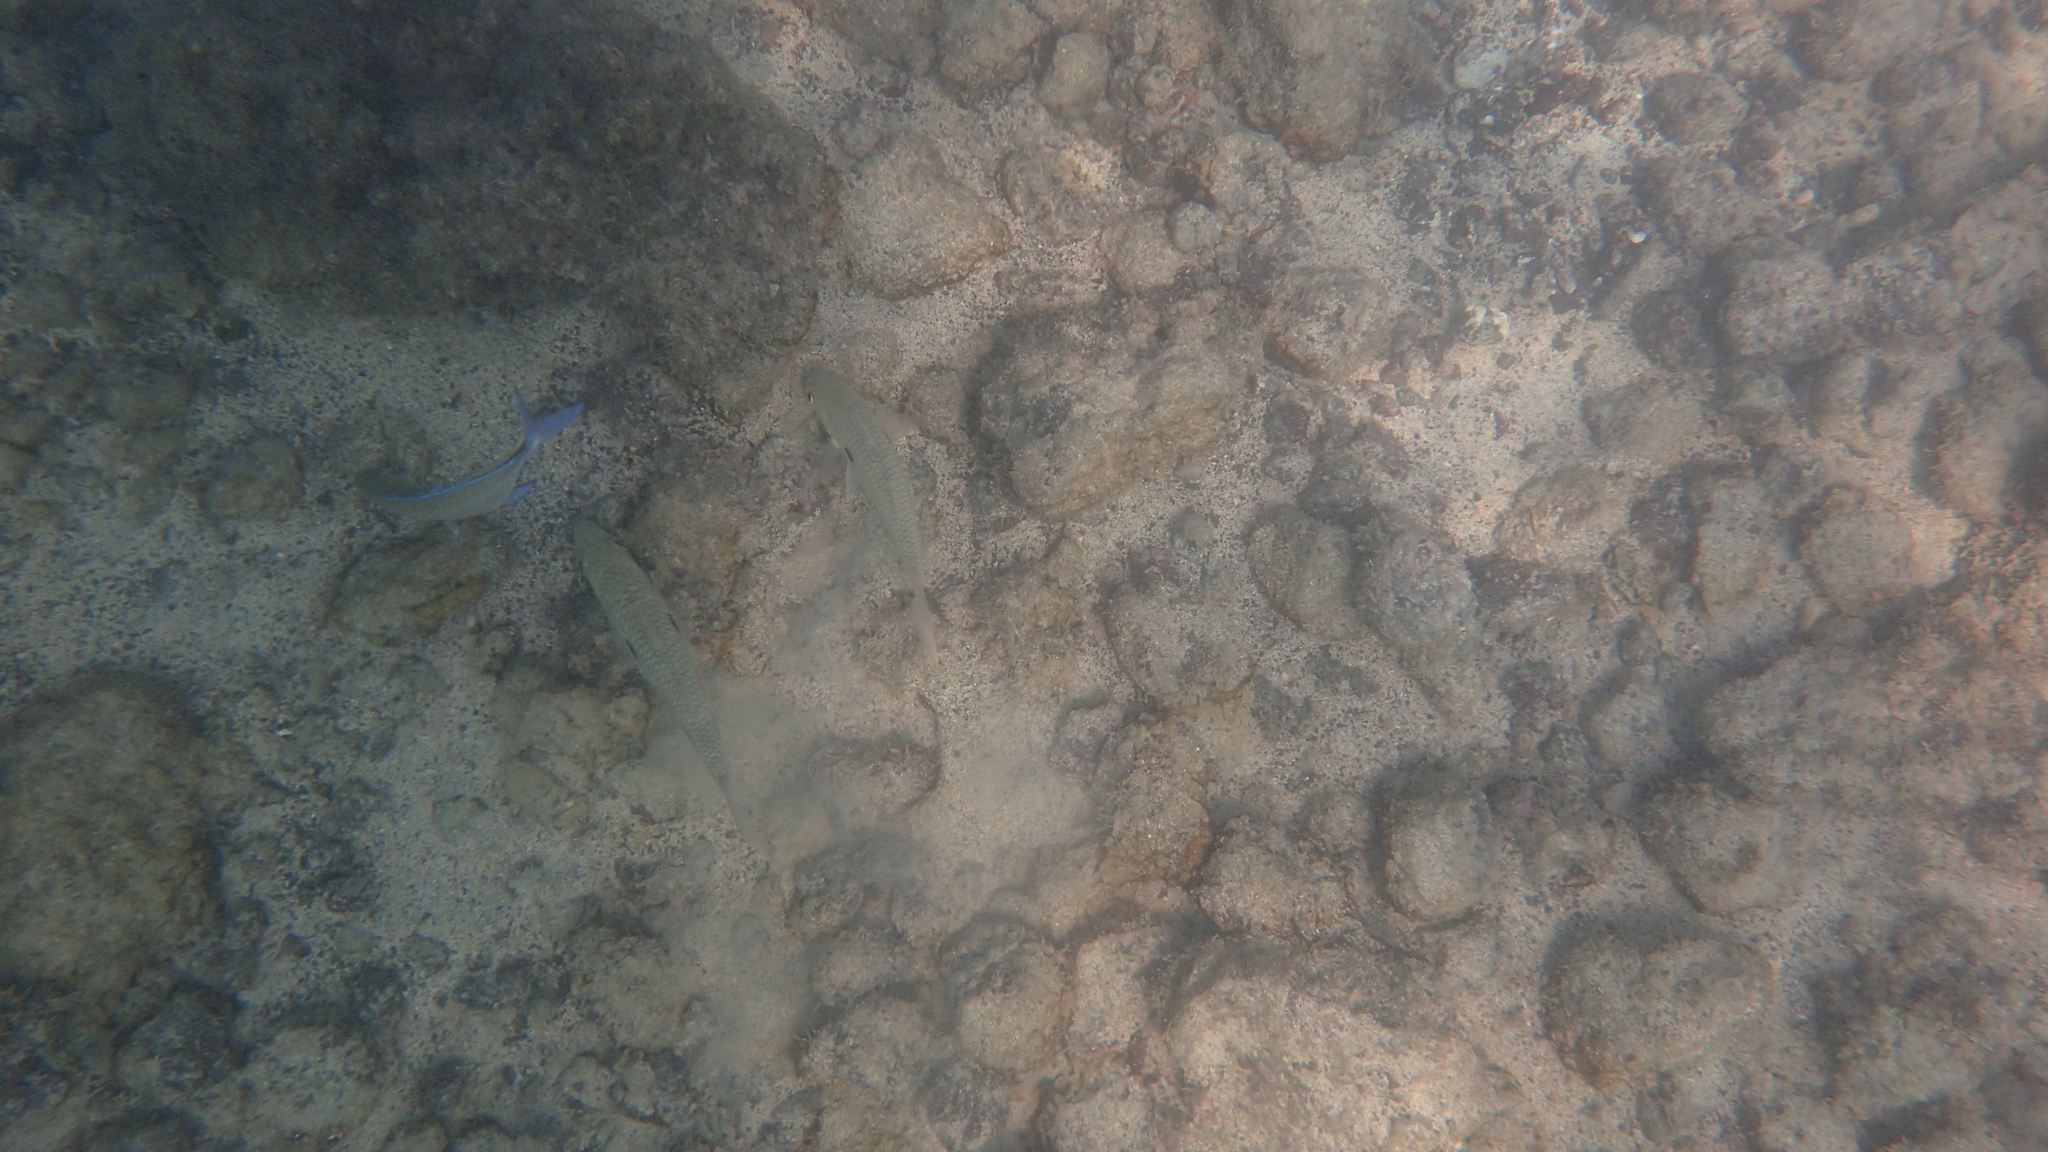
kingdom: Animalia
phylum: Chordata
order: Perciformes
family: Mullidae
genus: Mulloidichthys
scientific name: Mulloidichthys flavolineatus
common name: Yellowstripe goatfish
